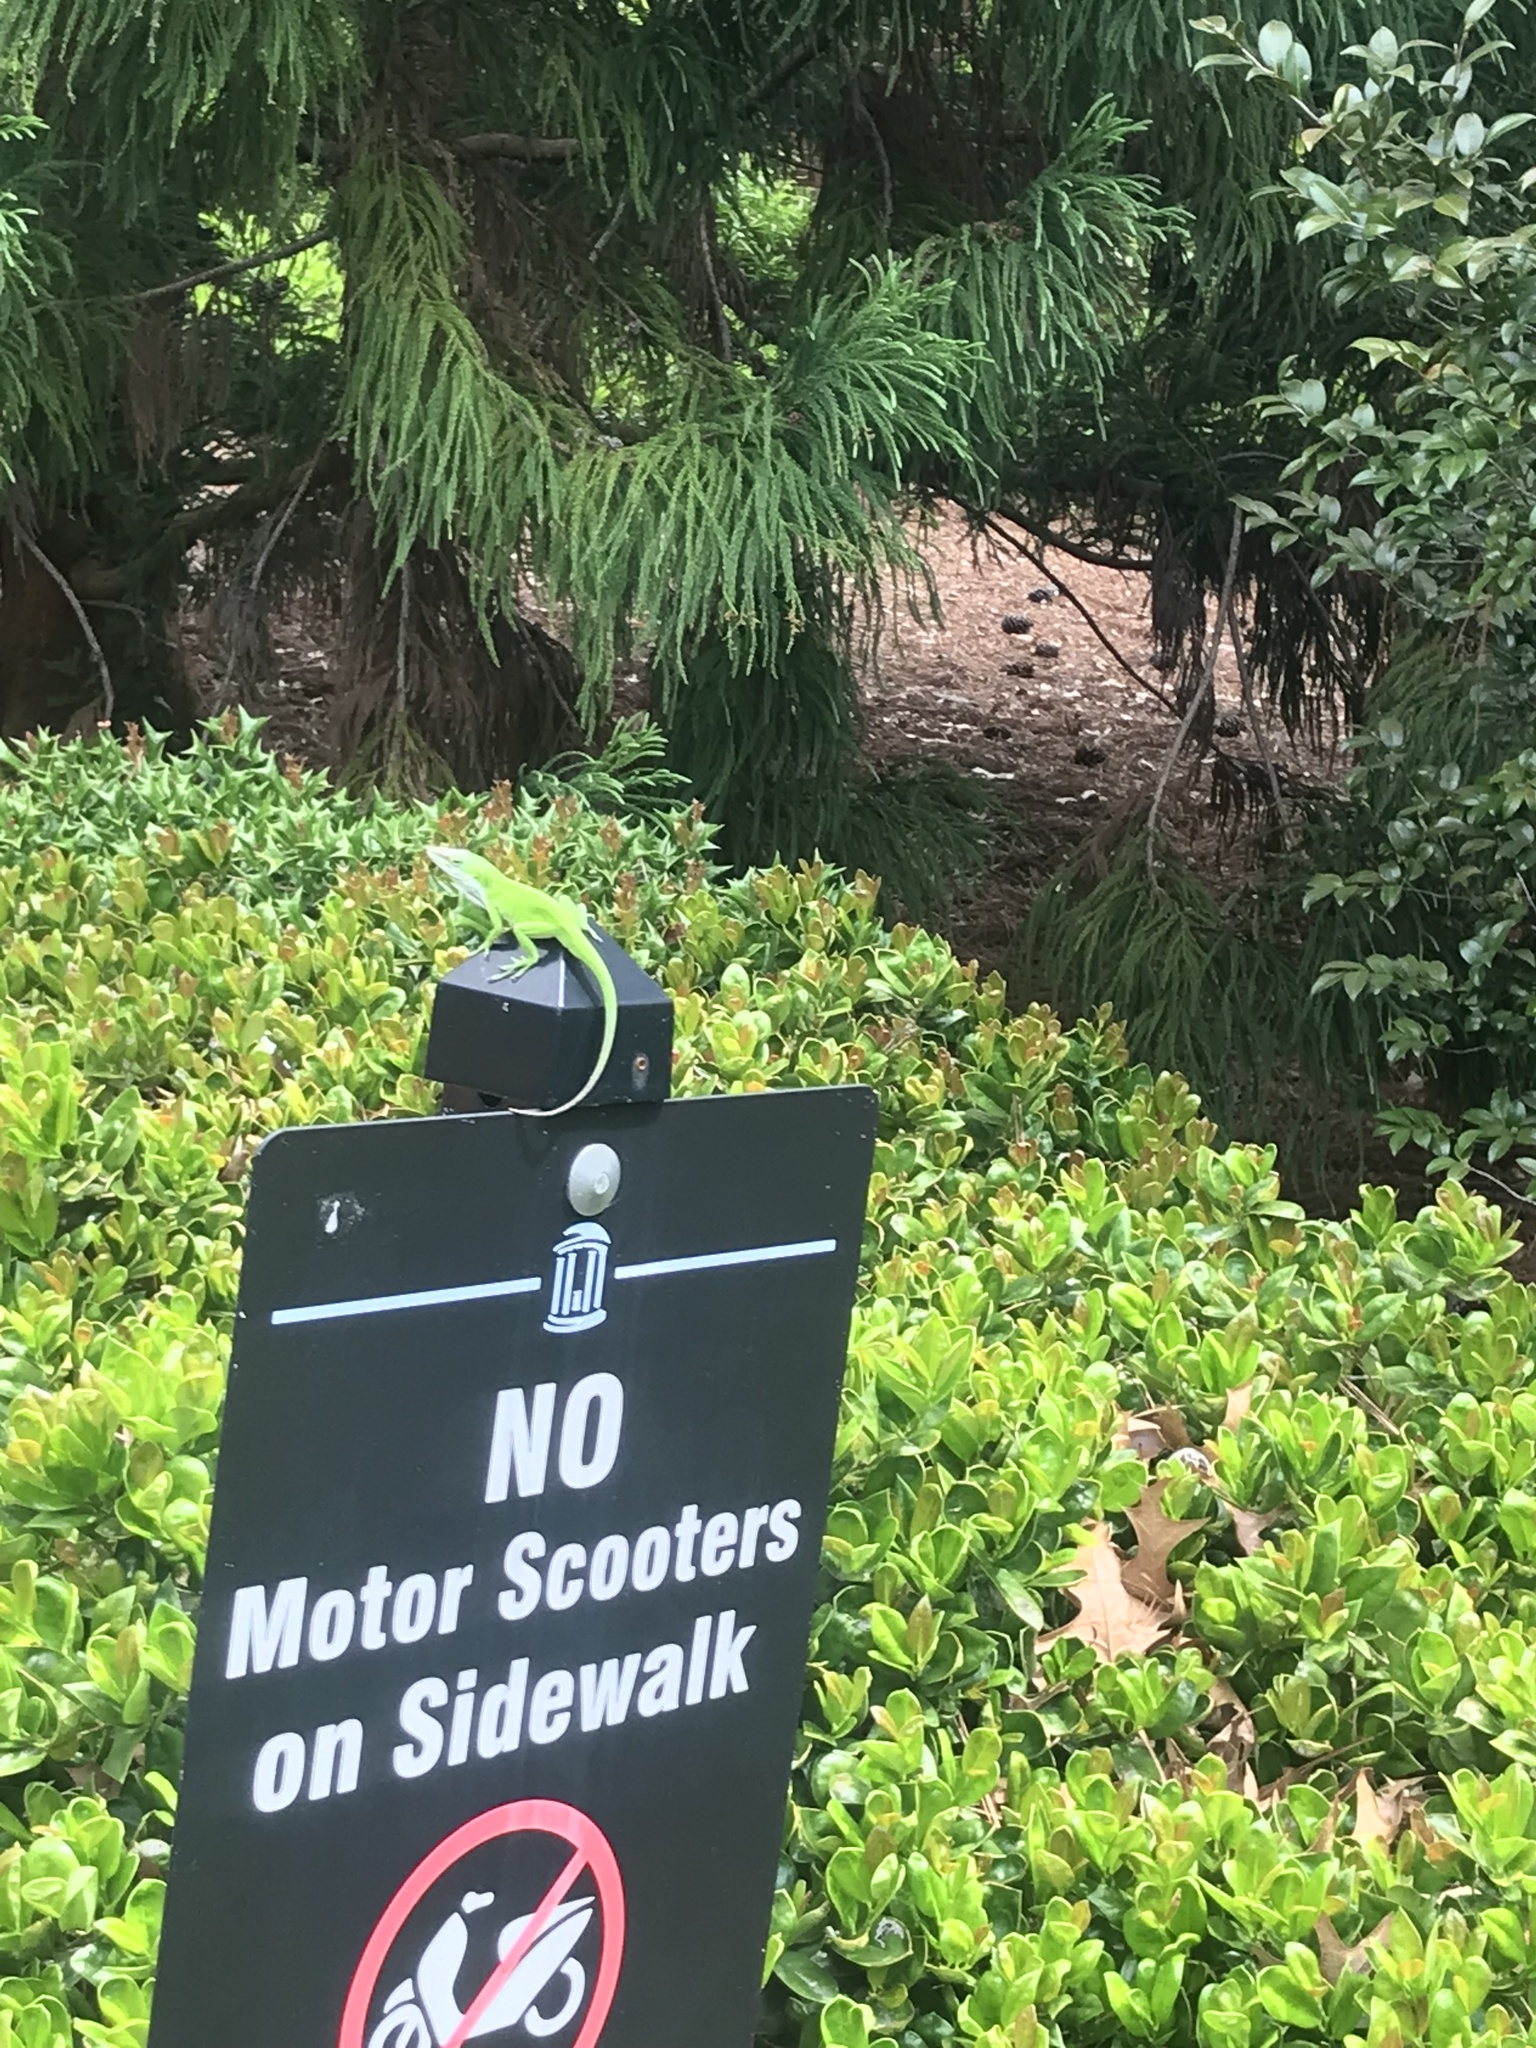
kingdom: Animalia
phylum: Chordata
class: Squamata
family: Dactyloidae
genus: Anolis
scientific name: Anolis carolinensis
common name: Green anole
